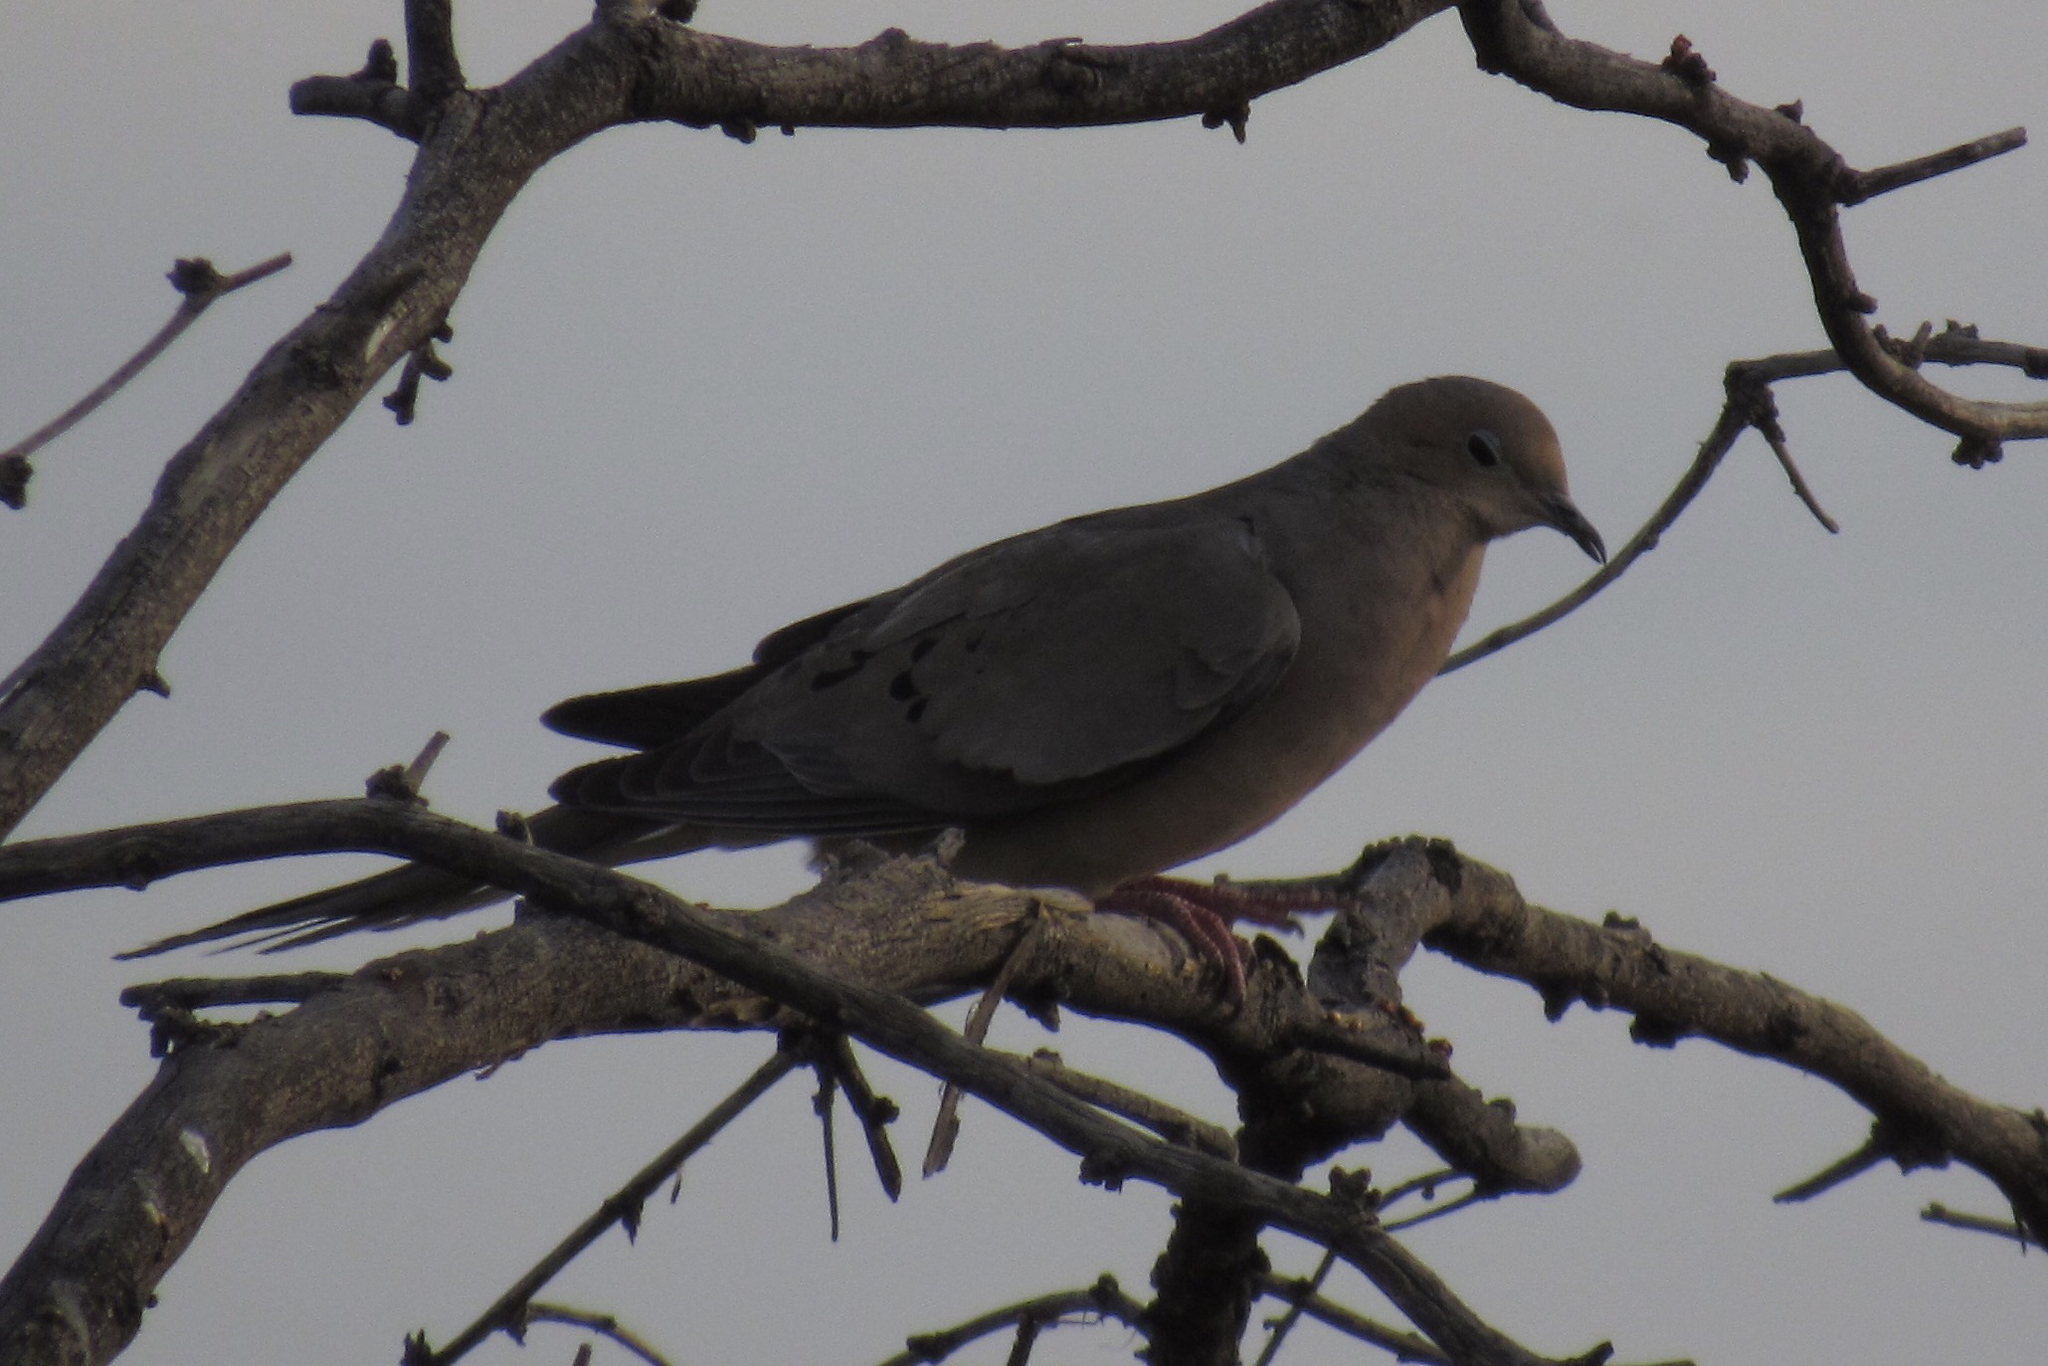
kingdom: Animalia
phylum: Chordata
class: Aves
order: Columbiformes
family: Columbidae
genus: Zenaida
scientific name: Zenaida macroura
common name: Mourning dove
